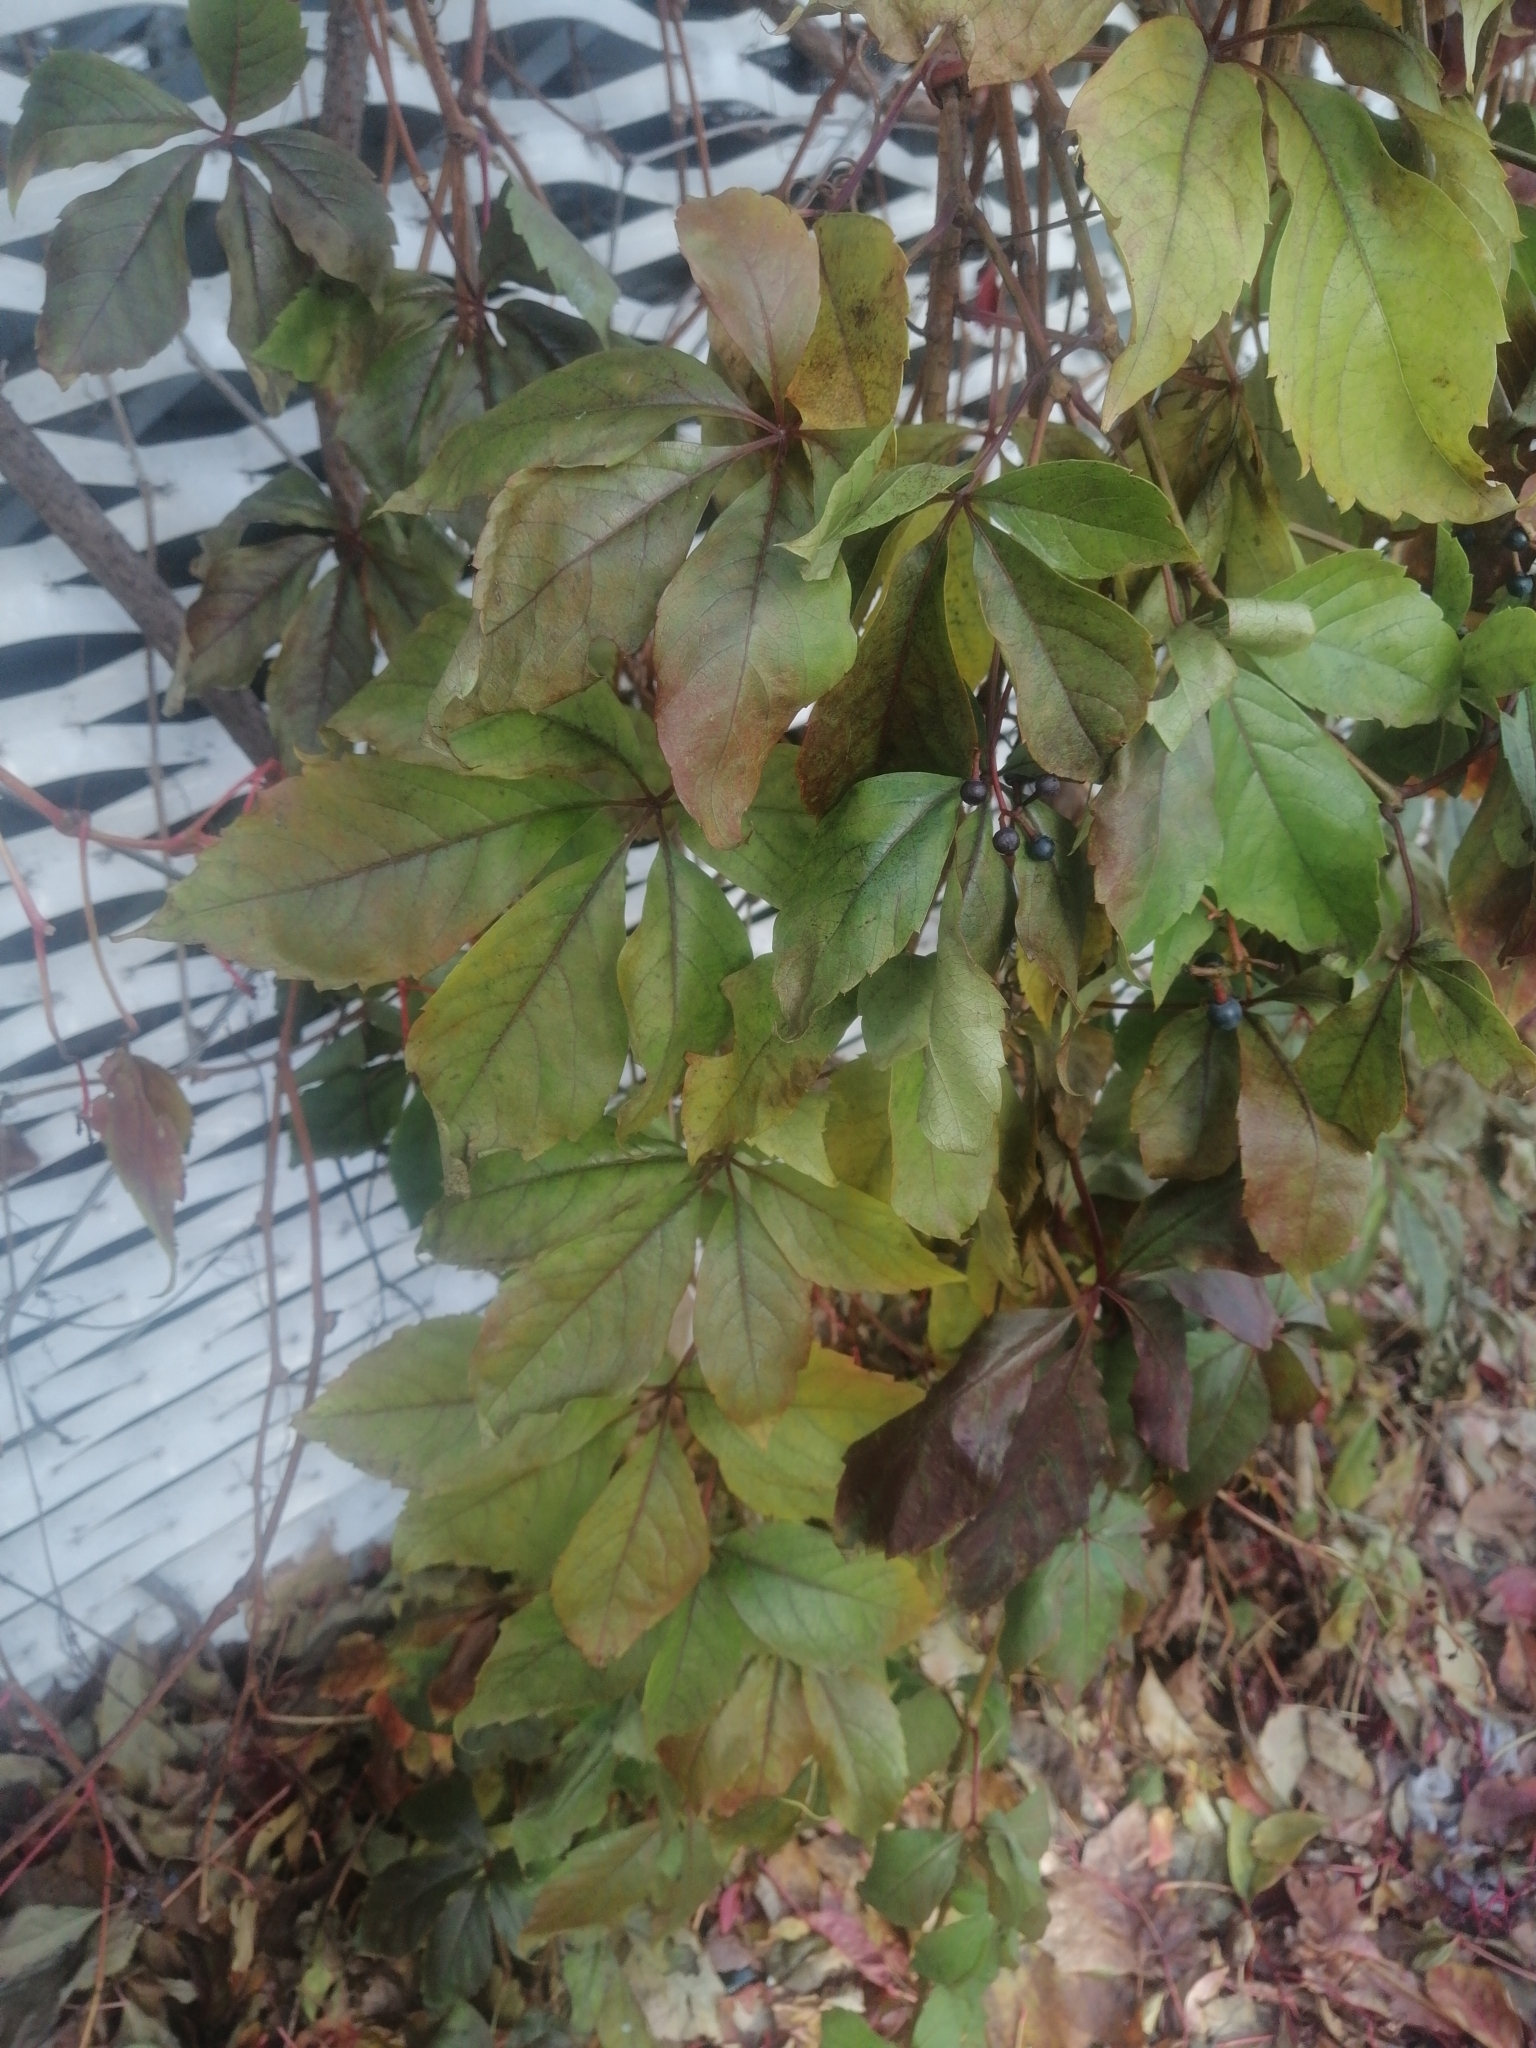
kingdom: Plantae
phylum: Tracheophyta
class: Magnoliopsida
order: Vitales
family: Vitaceae
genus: Parthenocissus
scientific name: Parthenocissus inserta
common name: False virginia-creeper
